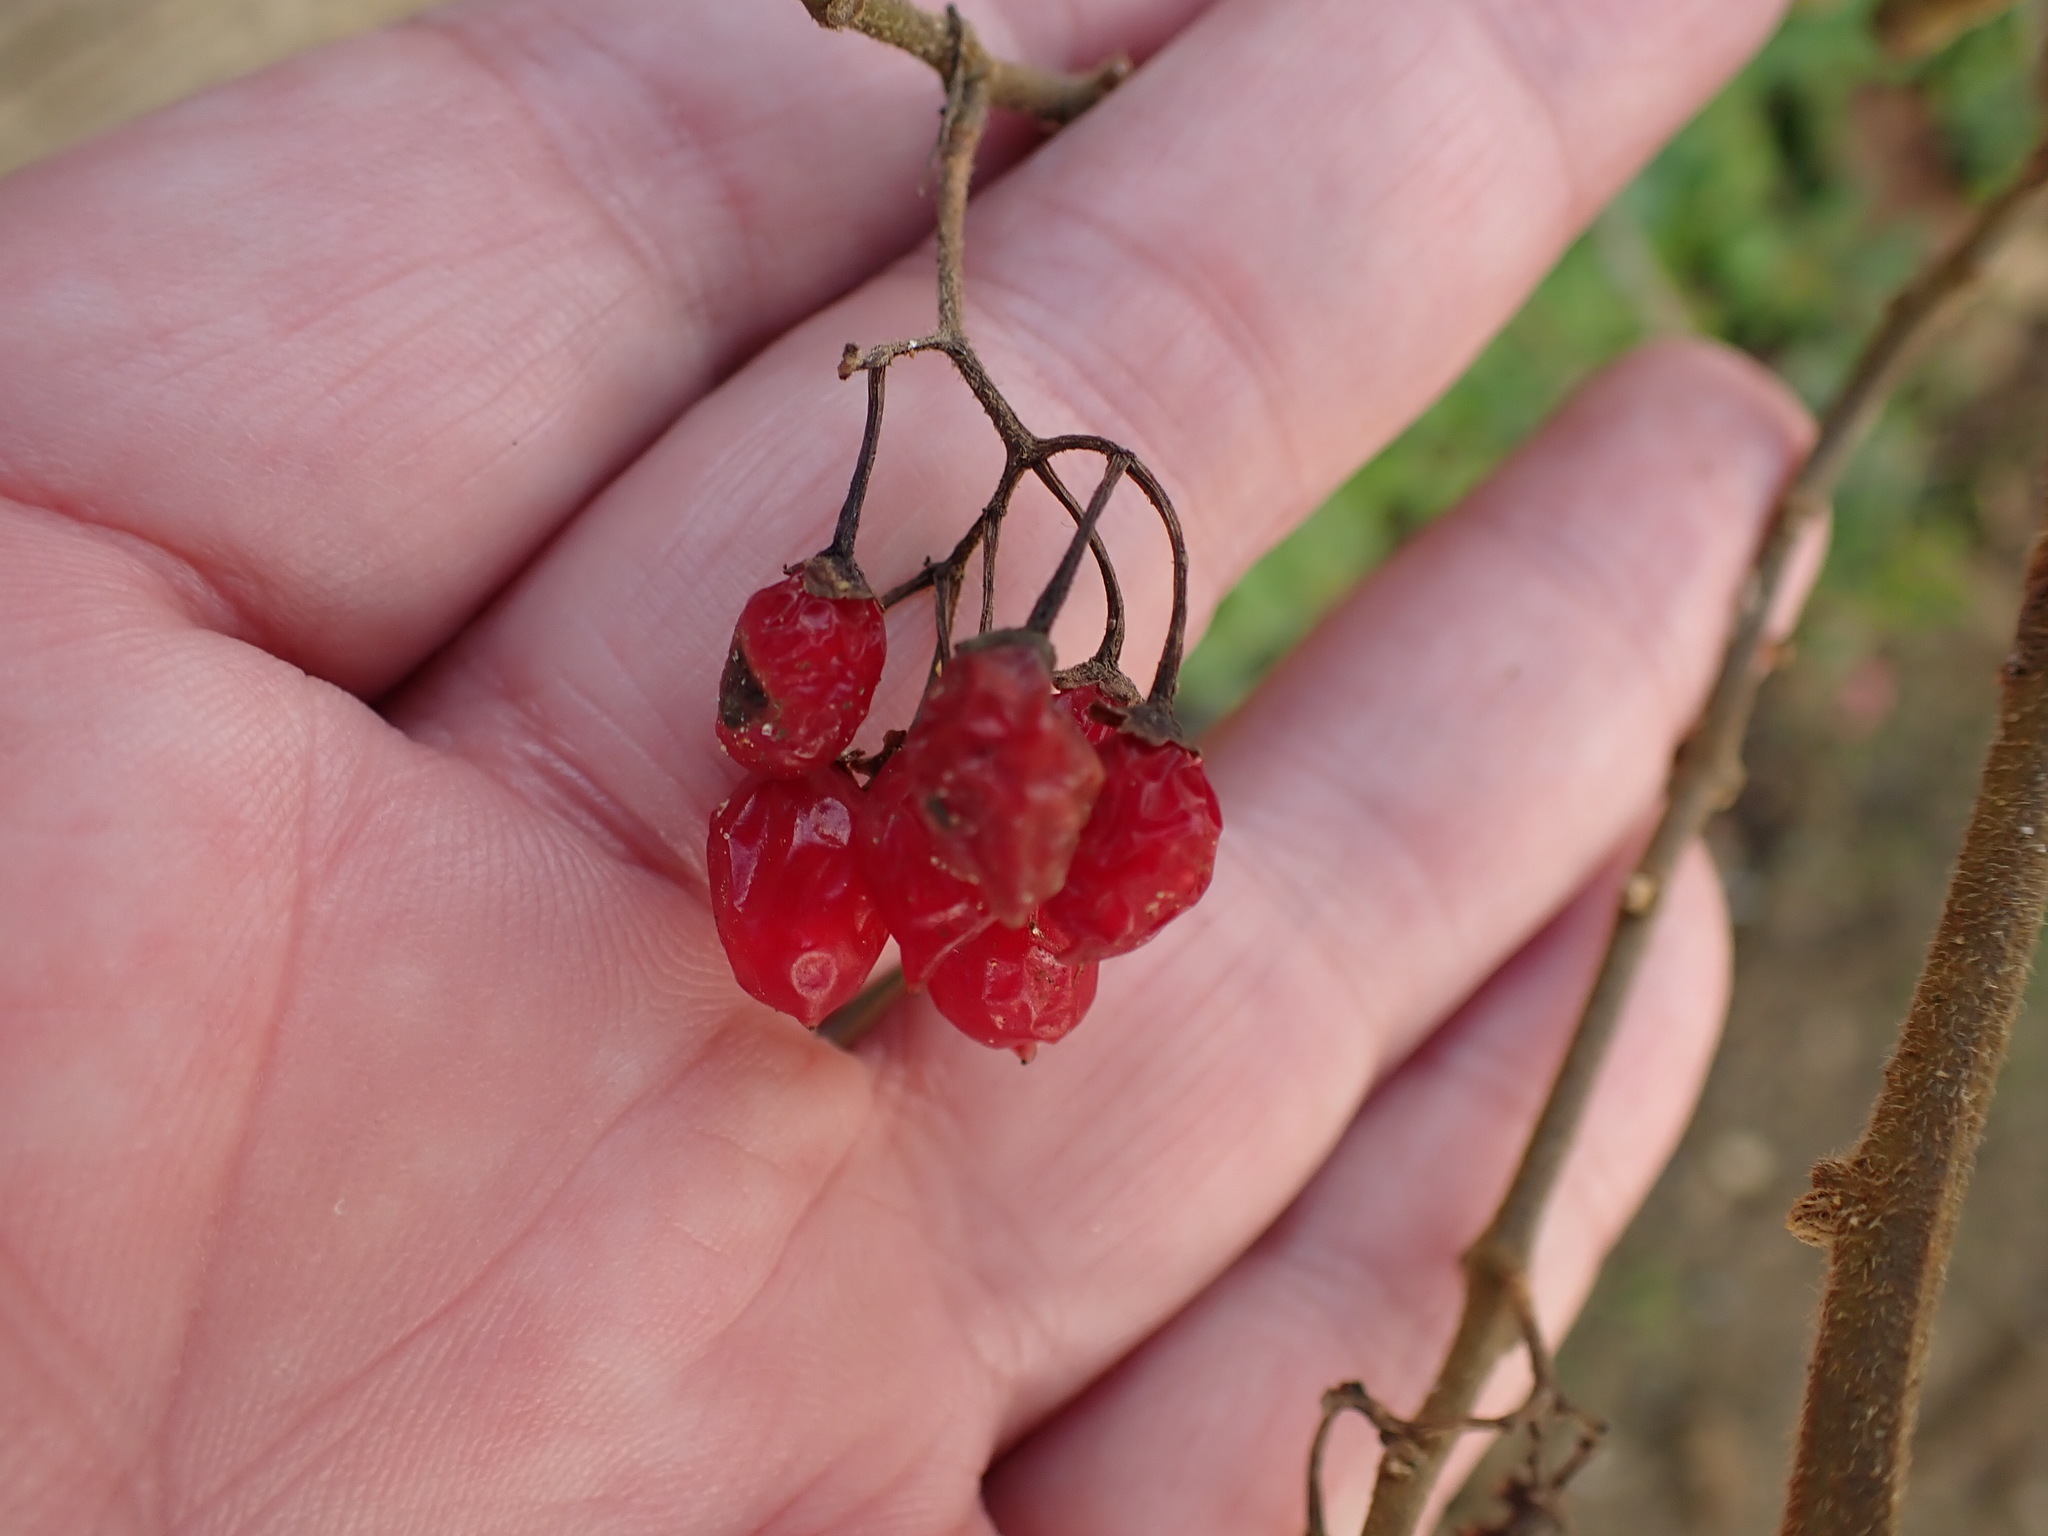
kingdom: Plantae
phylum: Tracheophyta
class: Magnoliopsida
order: Solanales
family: Solanaceae
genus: Solanum
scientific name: Solanum dulcamara
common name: Climbing nightshade
